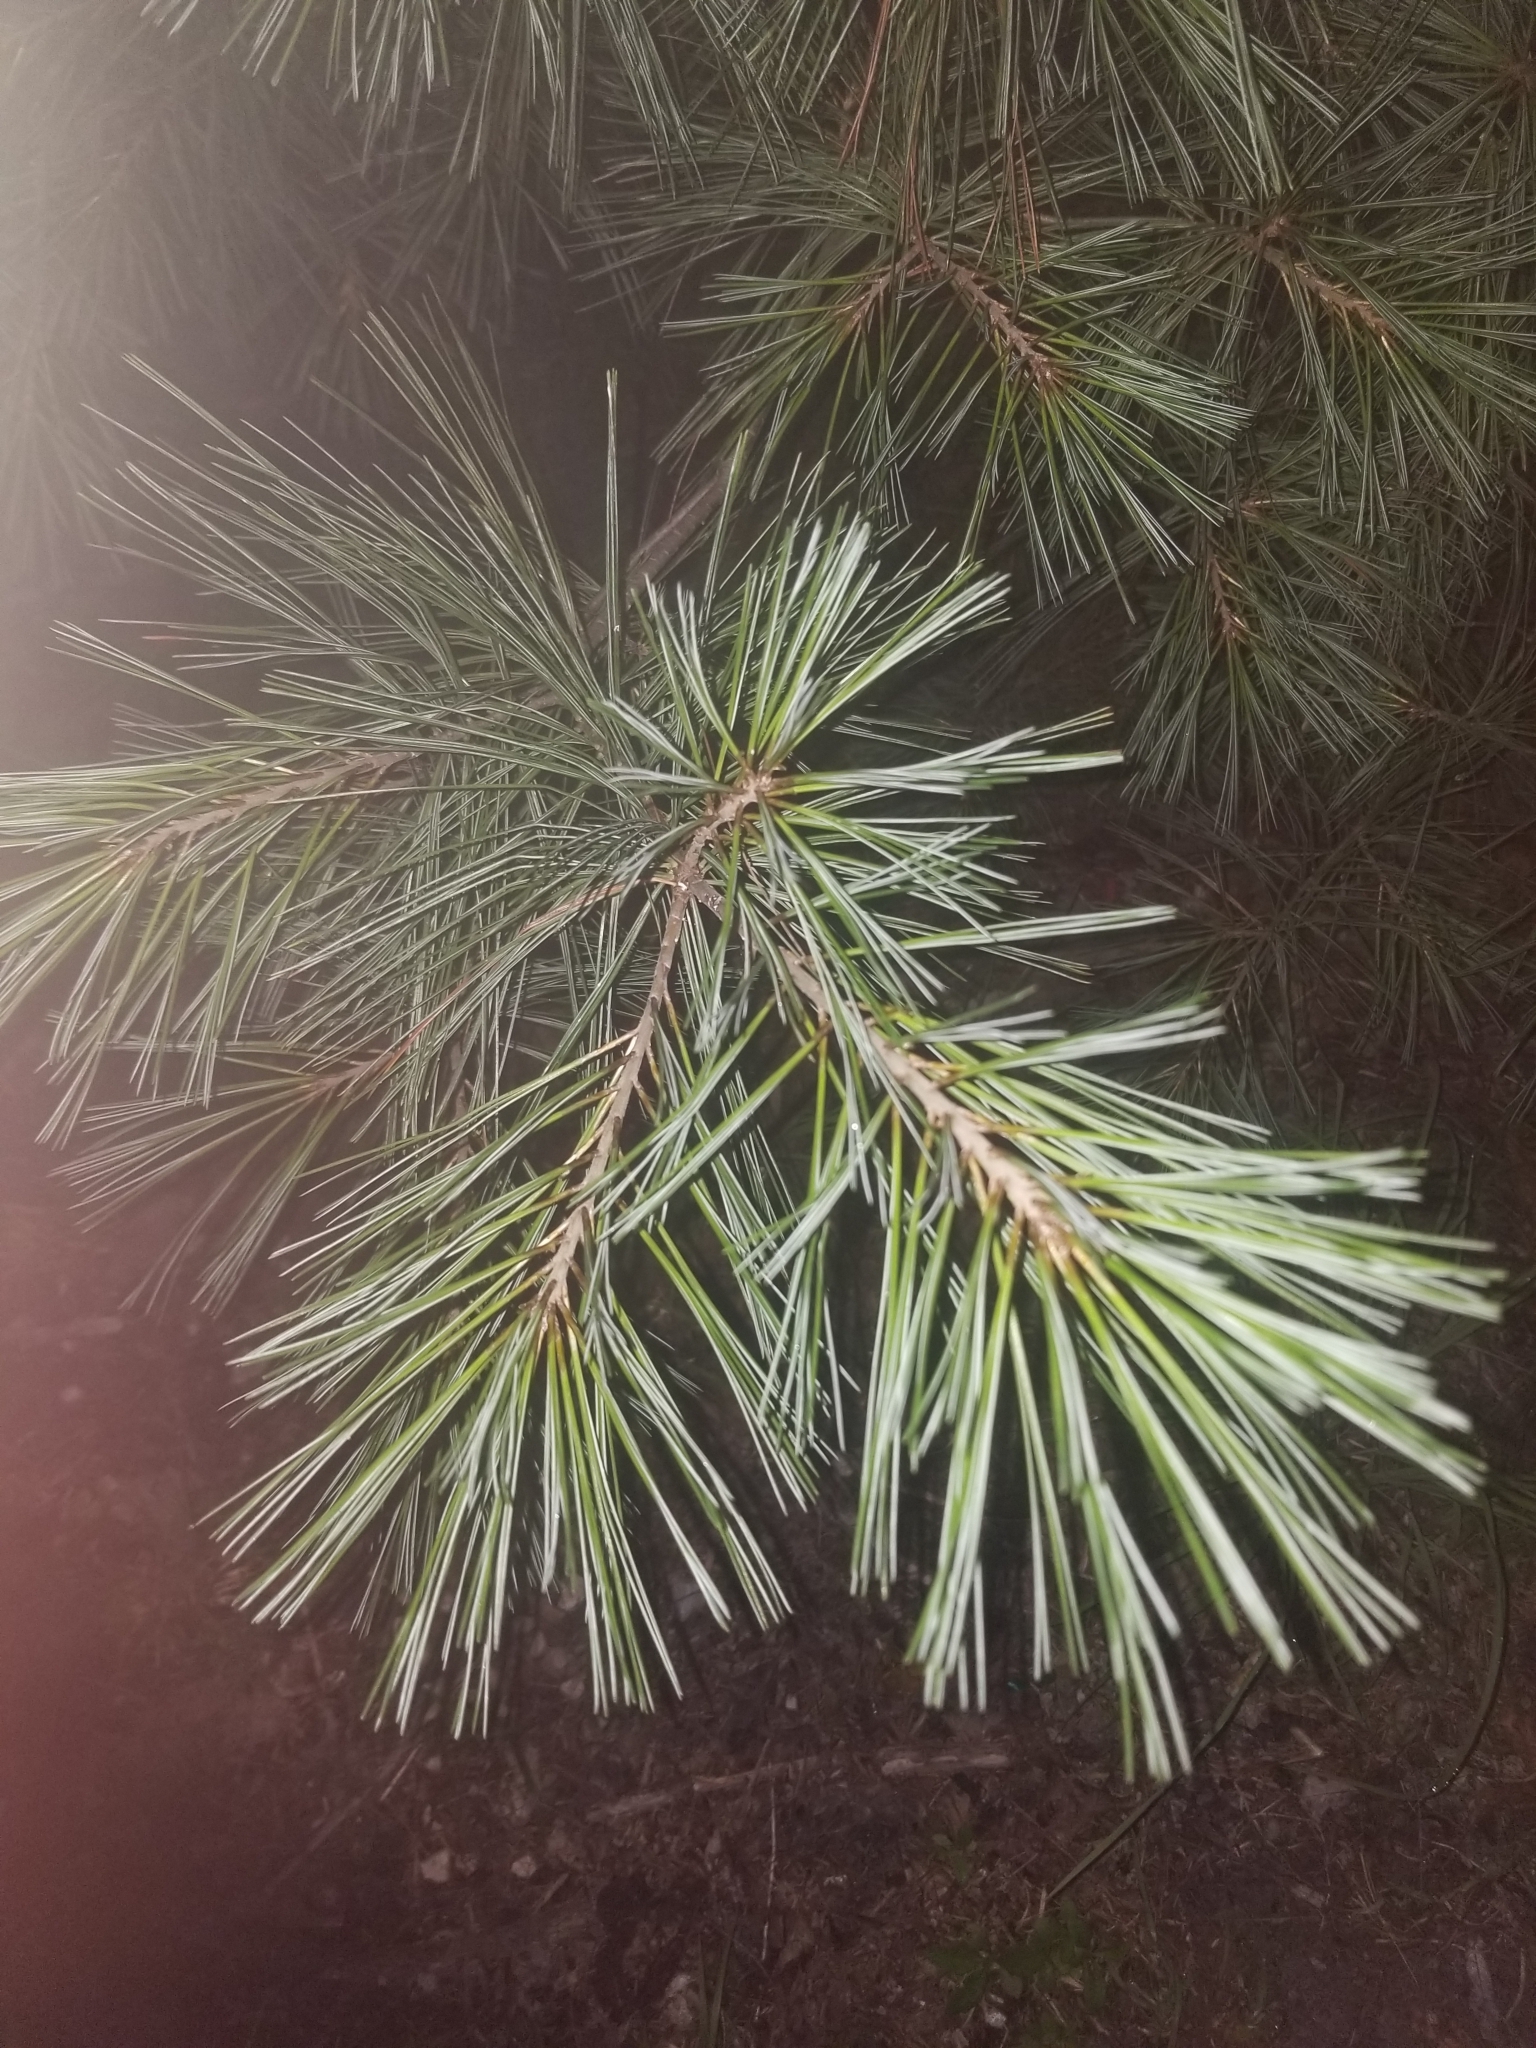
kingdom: Plantae
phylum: Tracheophyta
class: Pinopsida
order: Pinales
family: Pinaceae
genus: Pinus
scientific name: Pinus strobus
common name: Weymouth pine
